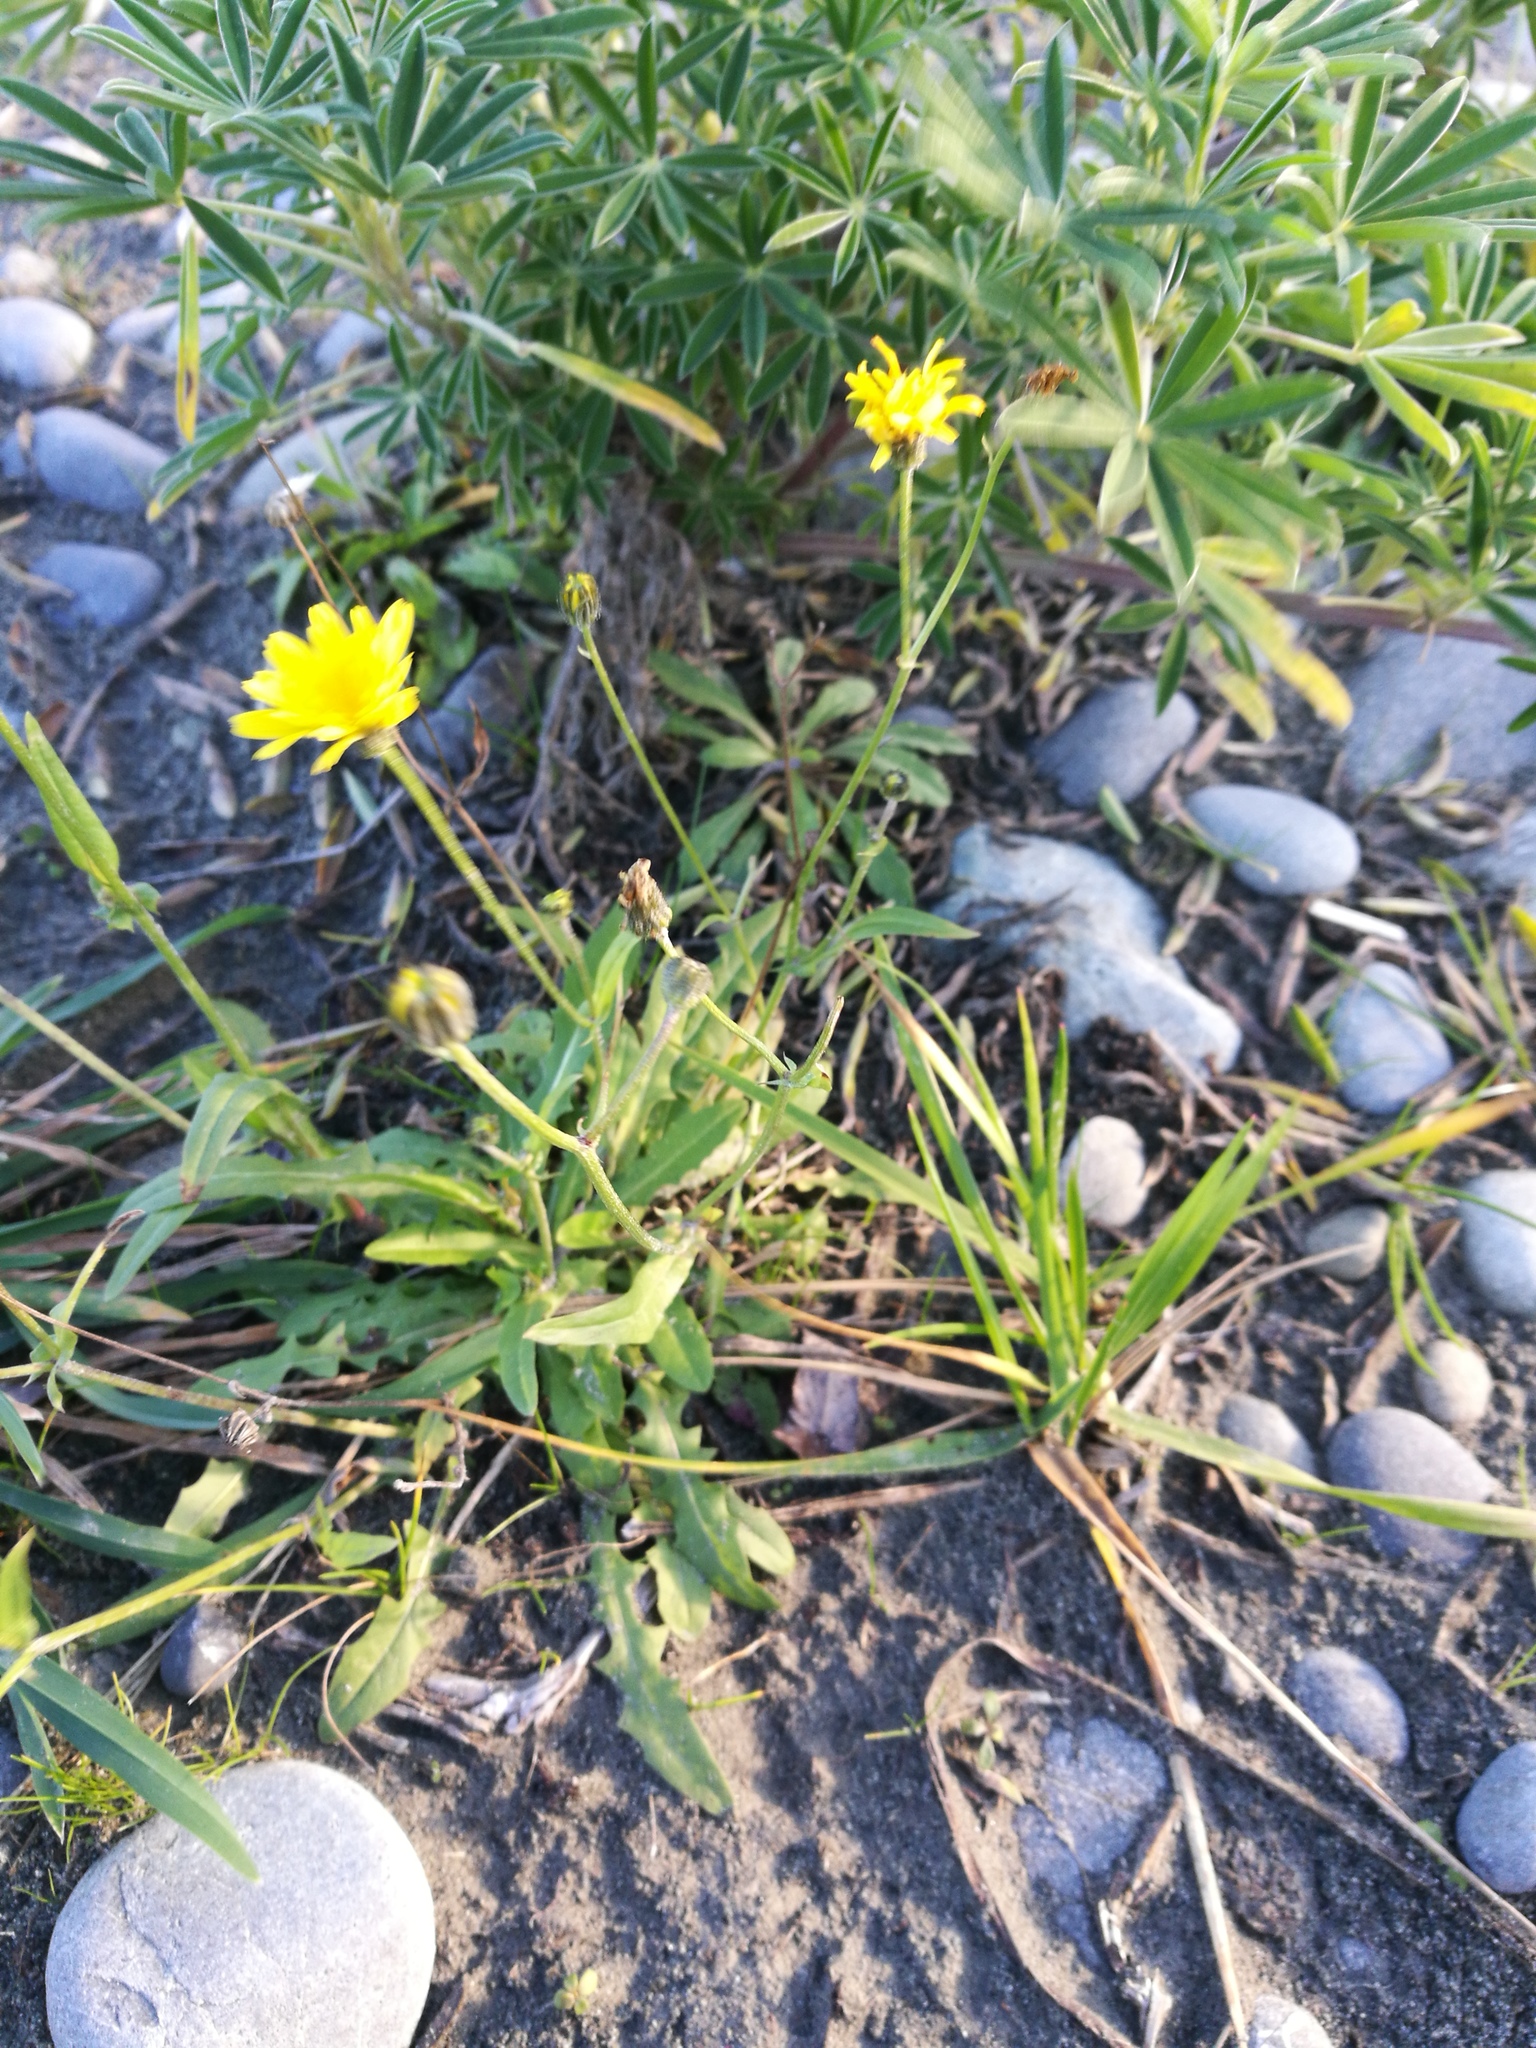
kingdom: Plantae
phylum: Tracheophyta
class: Magnoliopsida
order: Asterales
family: Asteraceae
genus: Hypochaeris
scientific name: Hypochaeris radicata
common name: Flatweed
